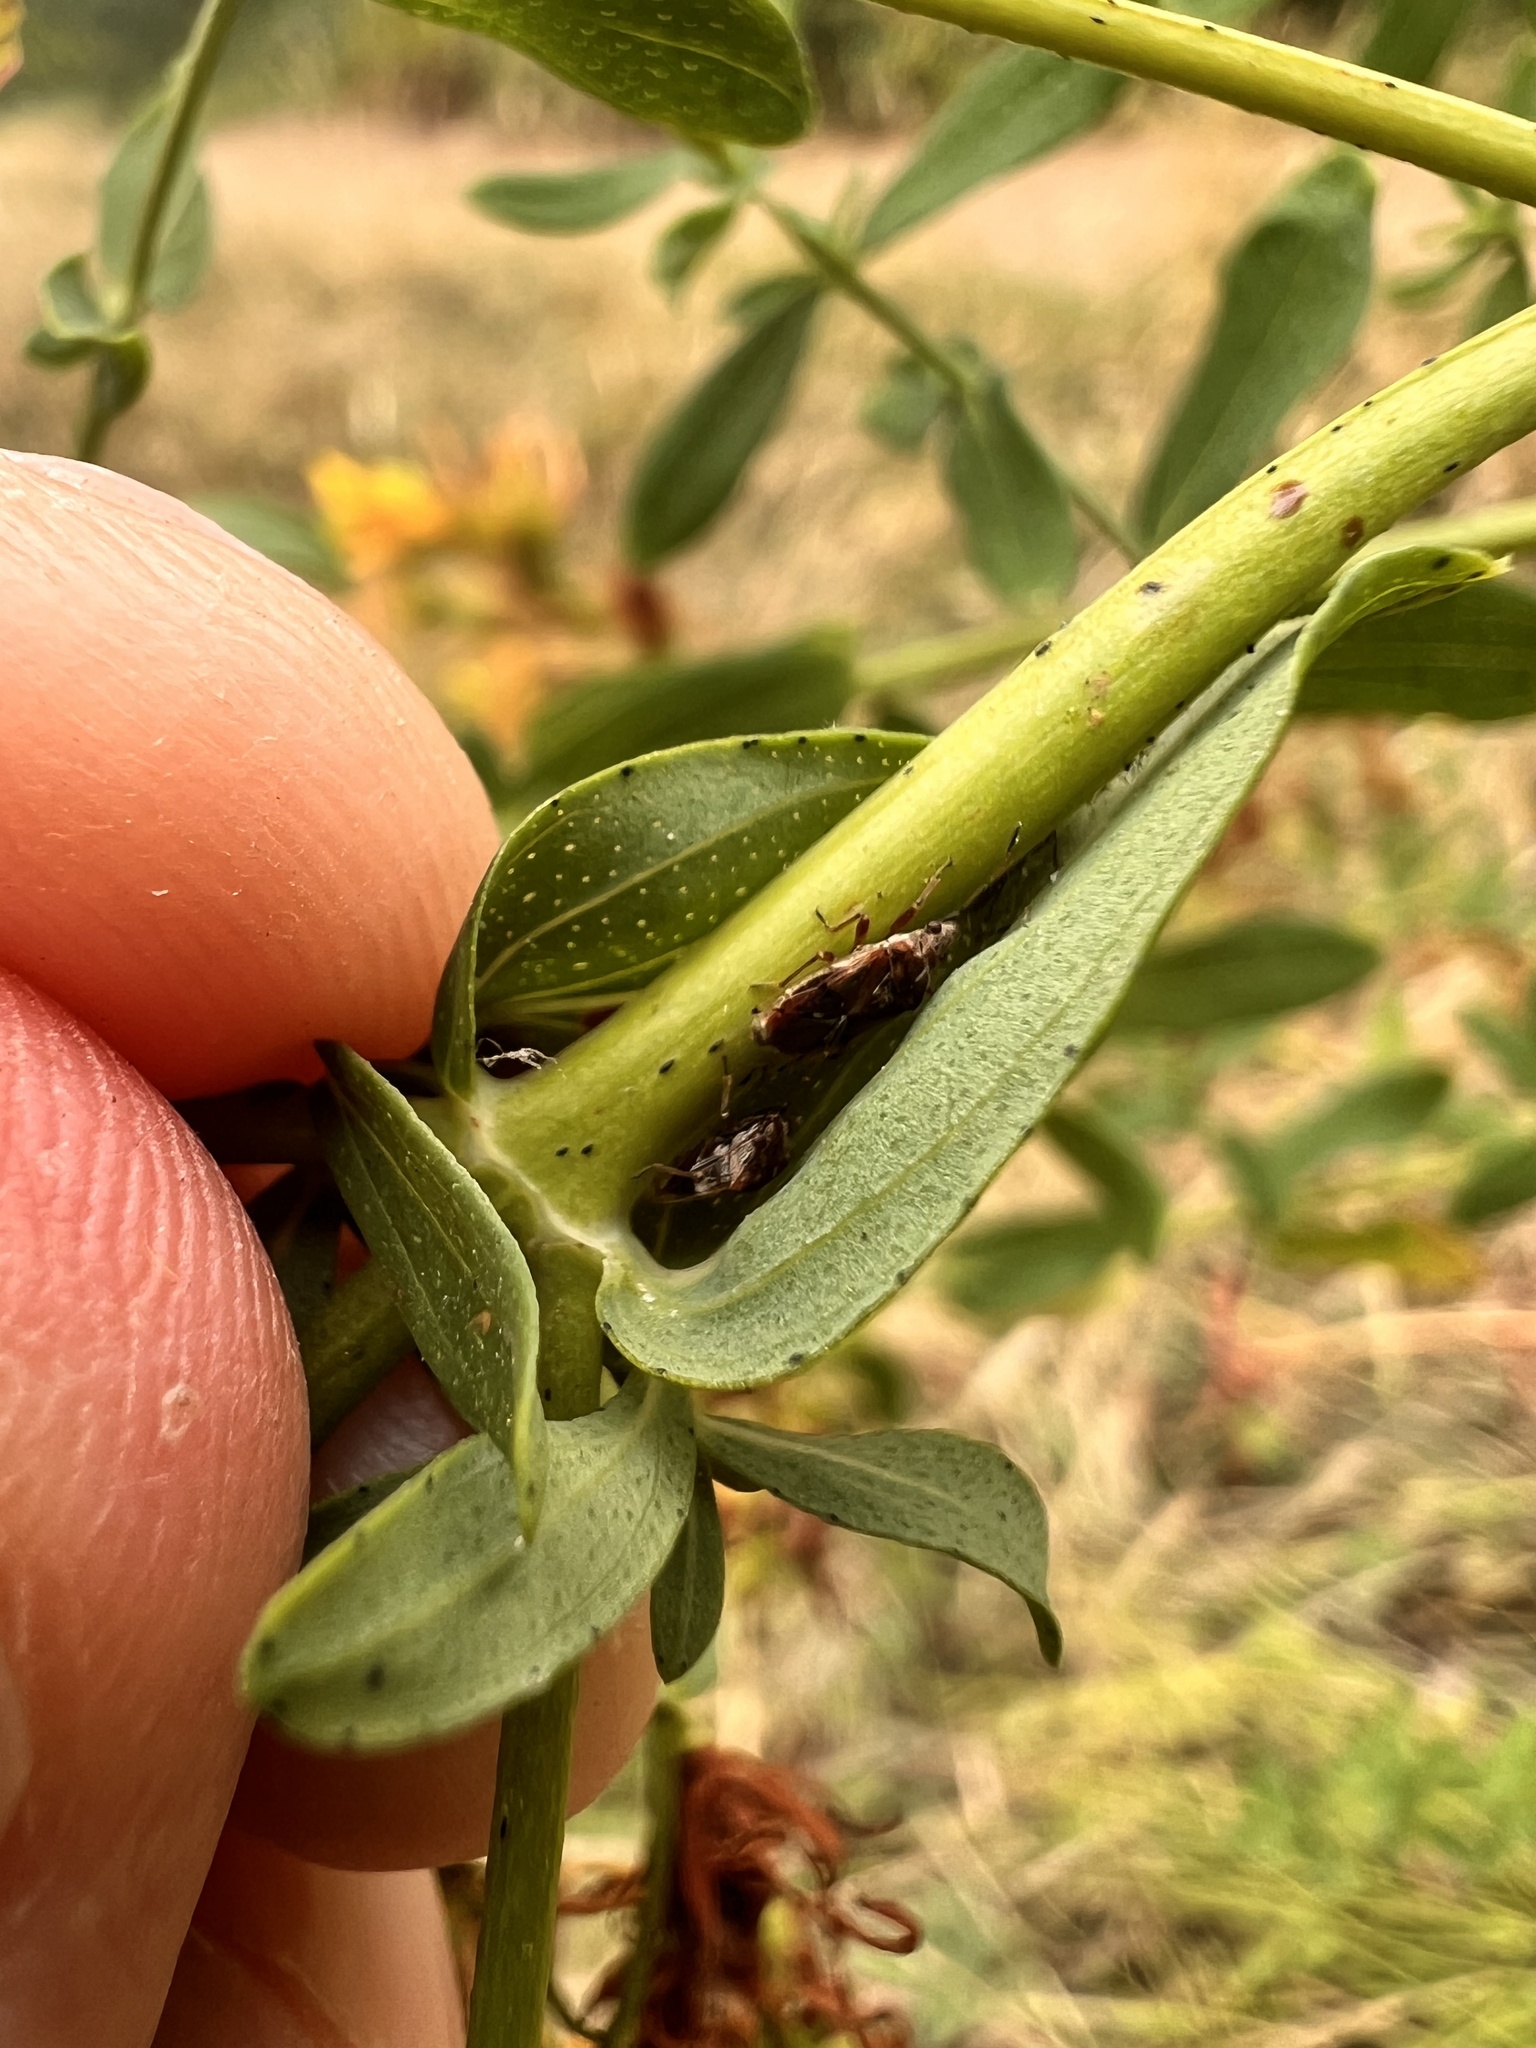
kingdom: Animalia
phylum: Arthropoda
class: Insecta
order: Hemiptera
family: Lygaeidae
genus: Kleidocerys
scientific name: Kleidocerys resedae
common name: Birch catkin bug
